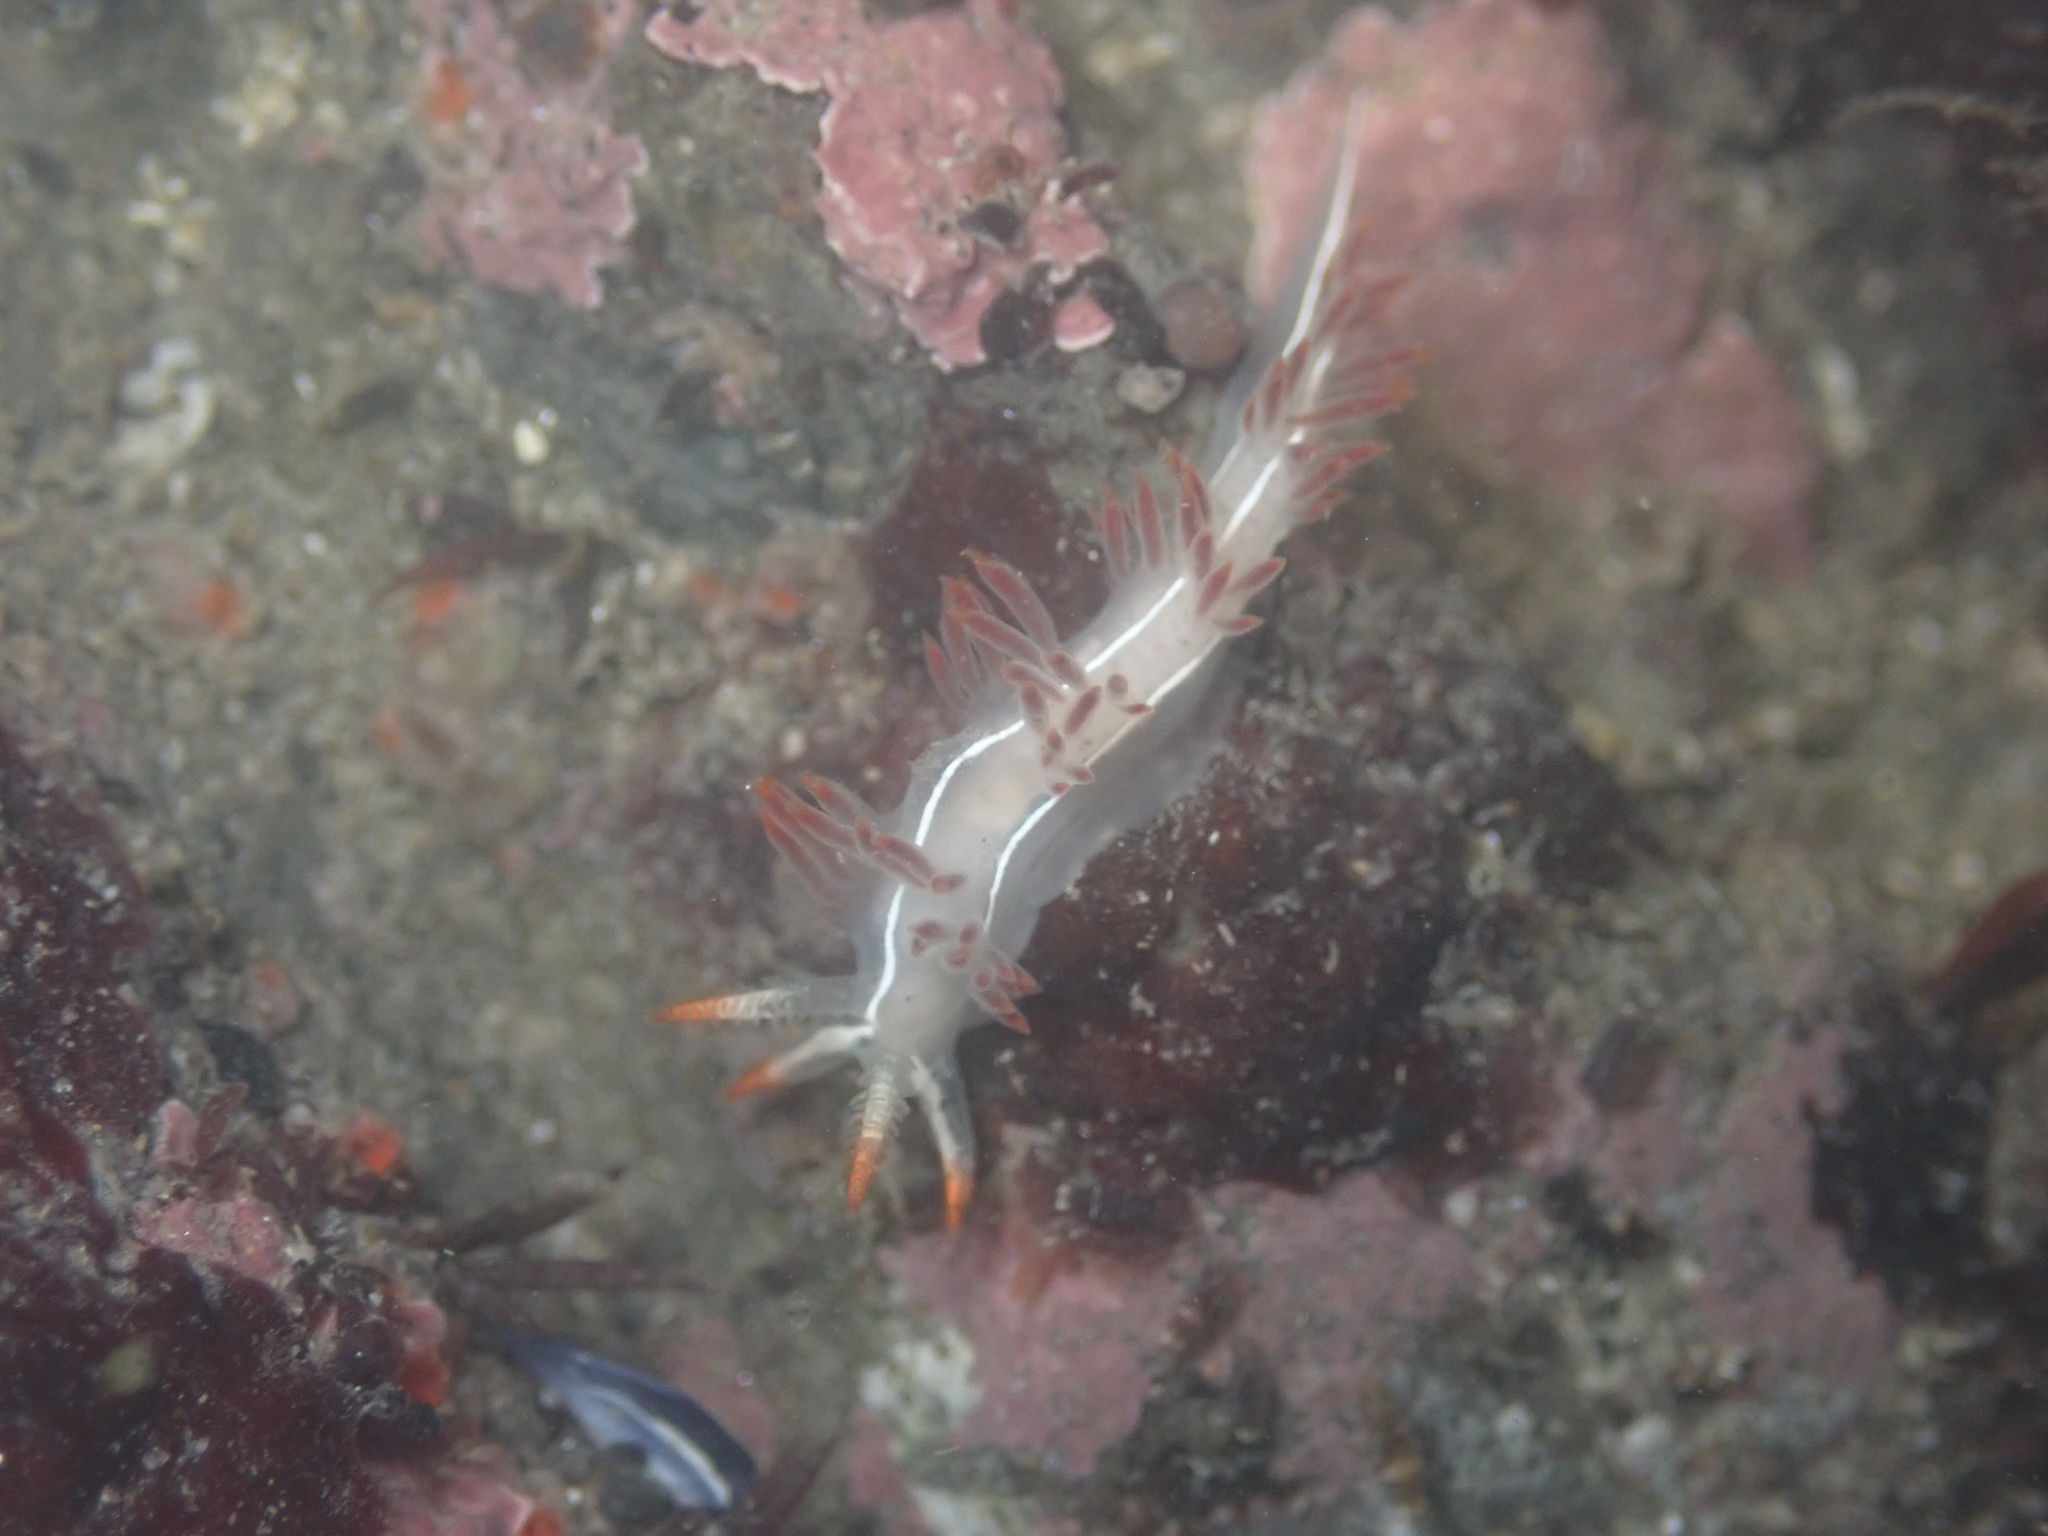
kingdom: Animalia
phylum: Mollusca
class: Gastropoda
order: Nudibranchia
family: Coryphellidae
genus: Coryphella
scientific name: Coryphella trilineata
